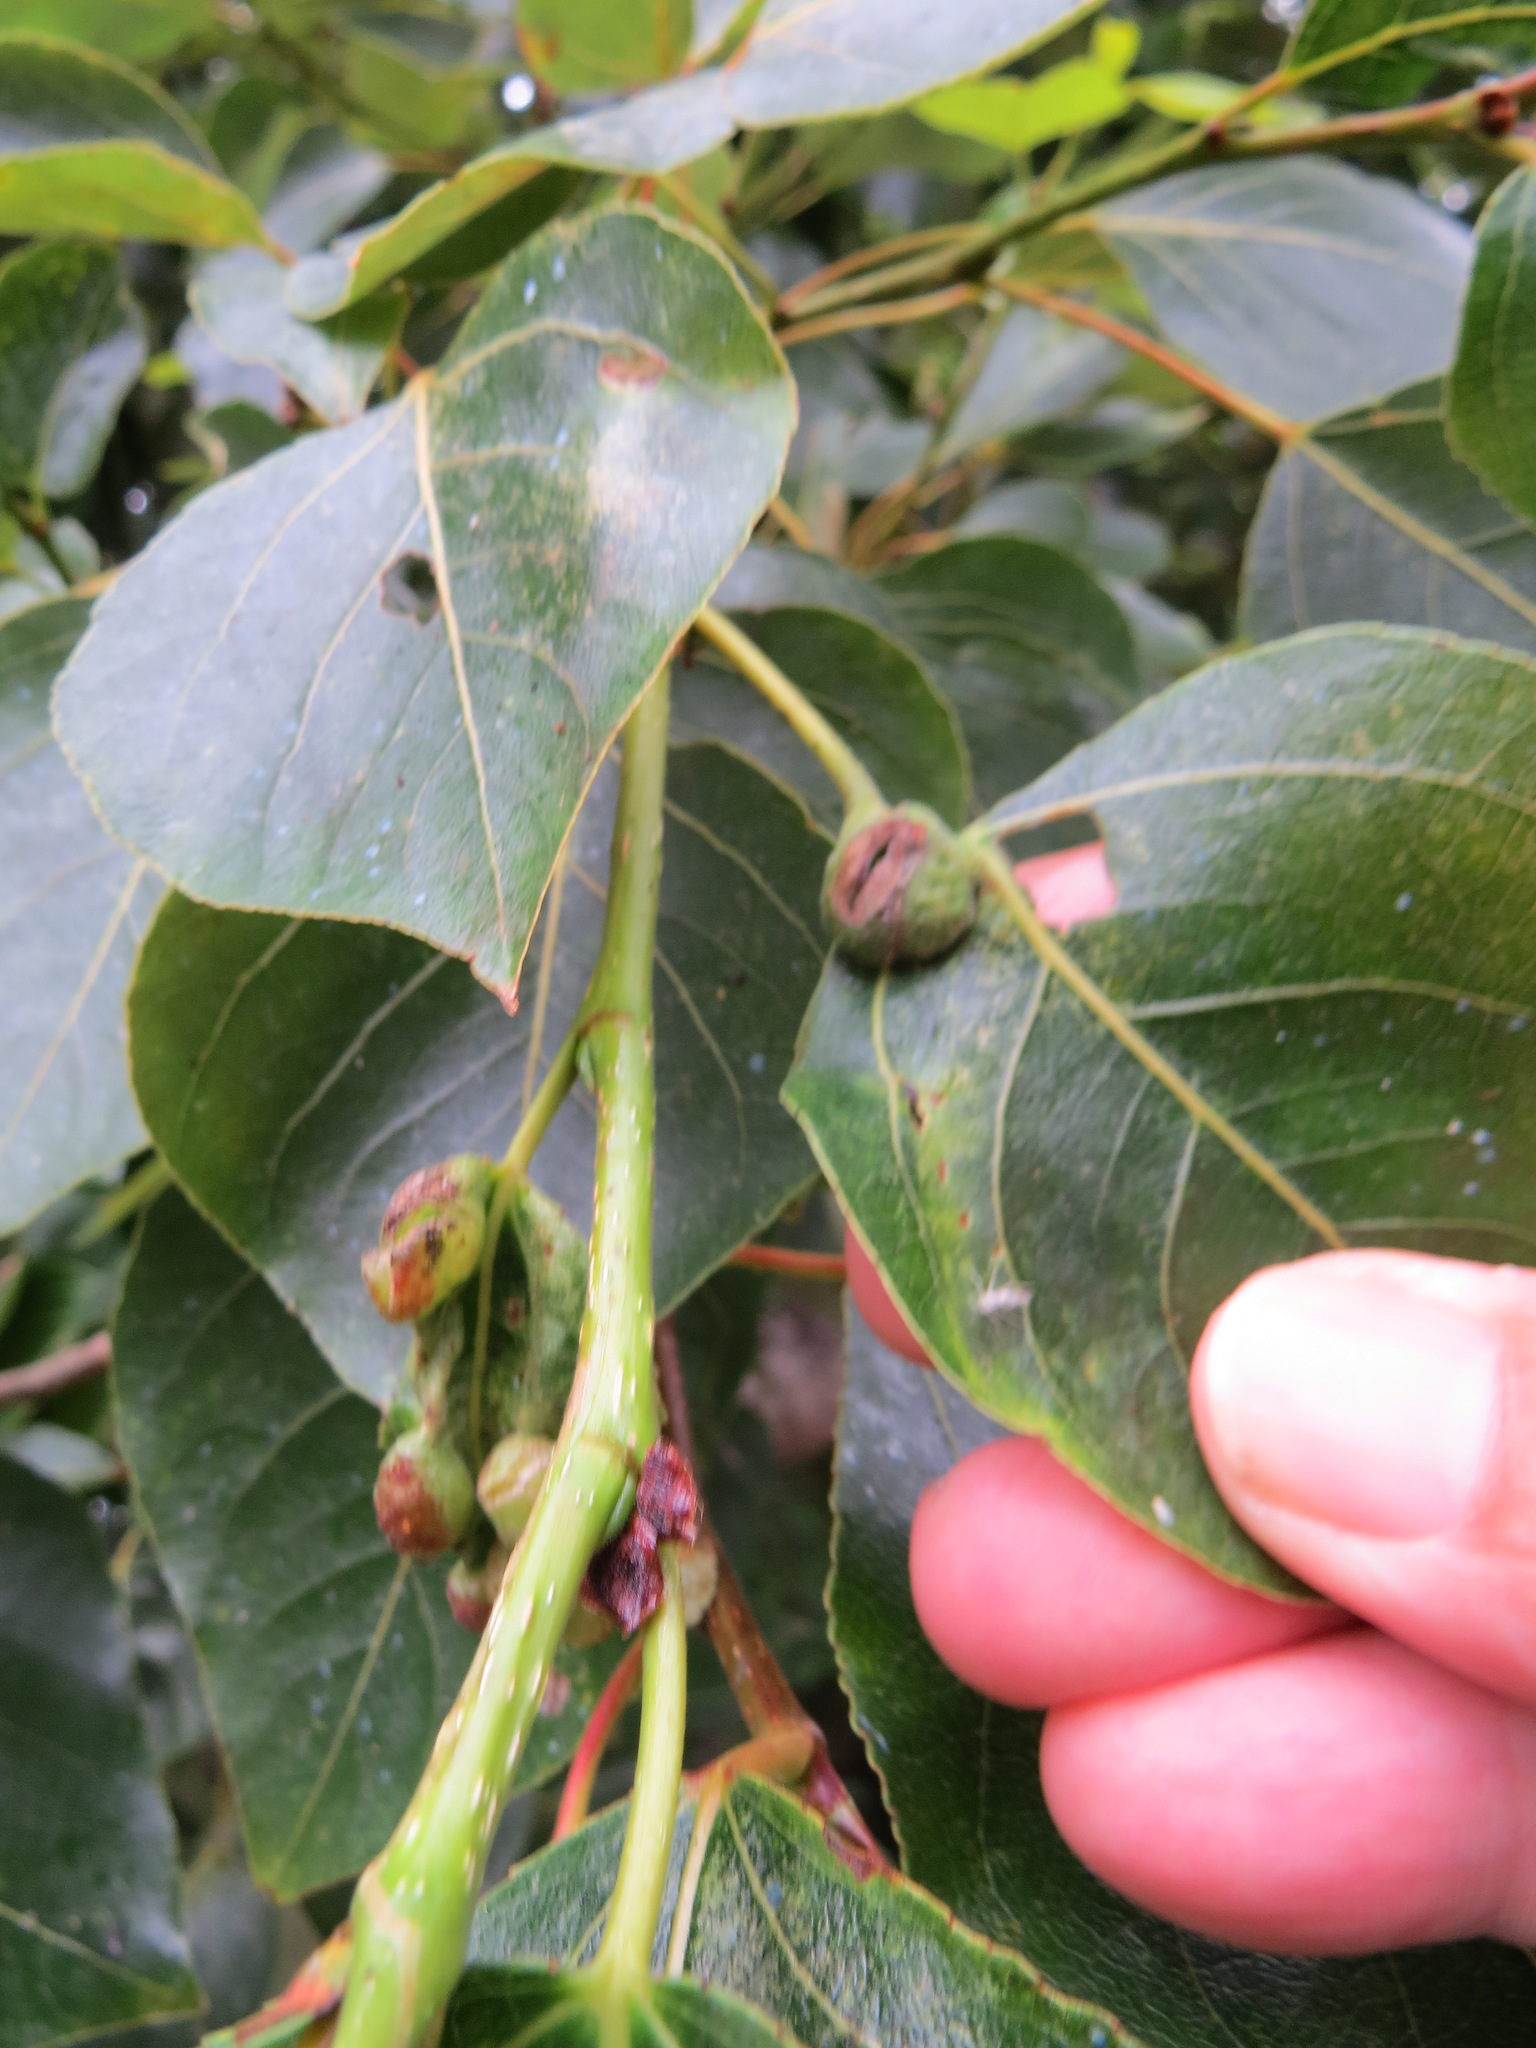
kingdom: Animalia
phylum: Arthropoda
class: Insecta
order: Hemiptera
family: Aphididae
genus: Pemphigus
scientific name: Pemphigus populi-globuli
